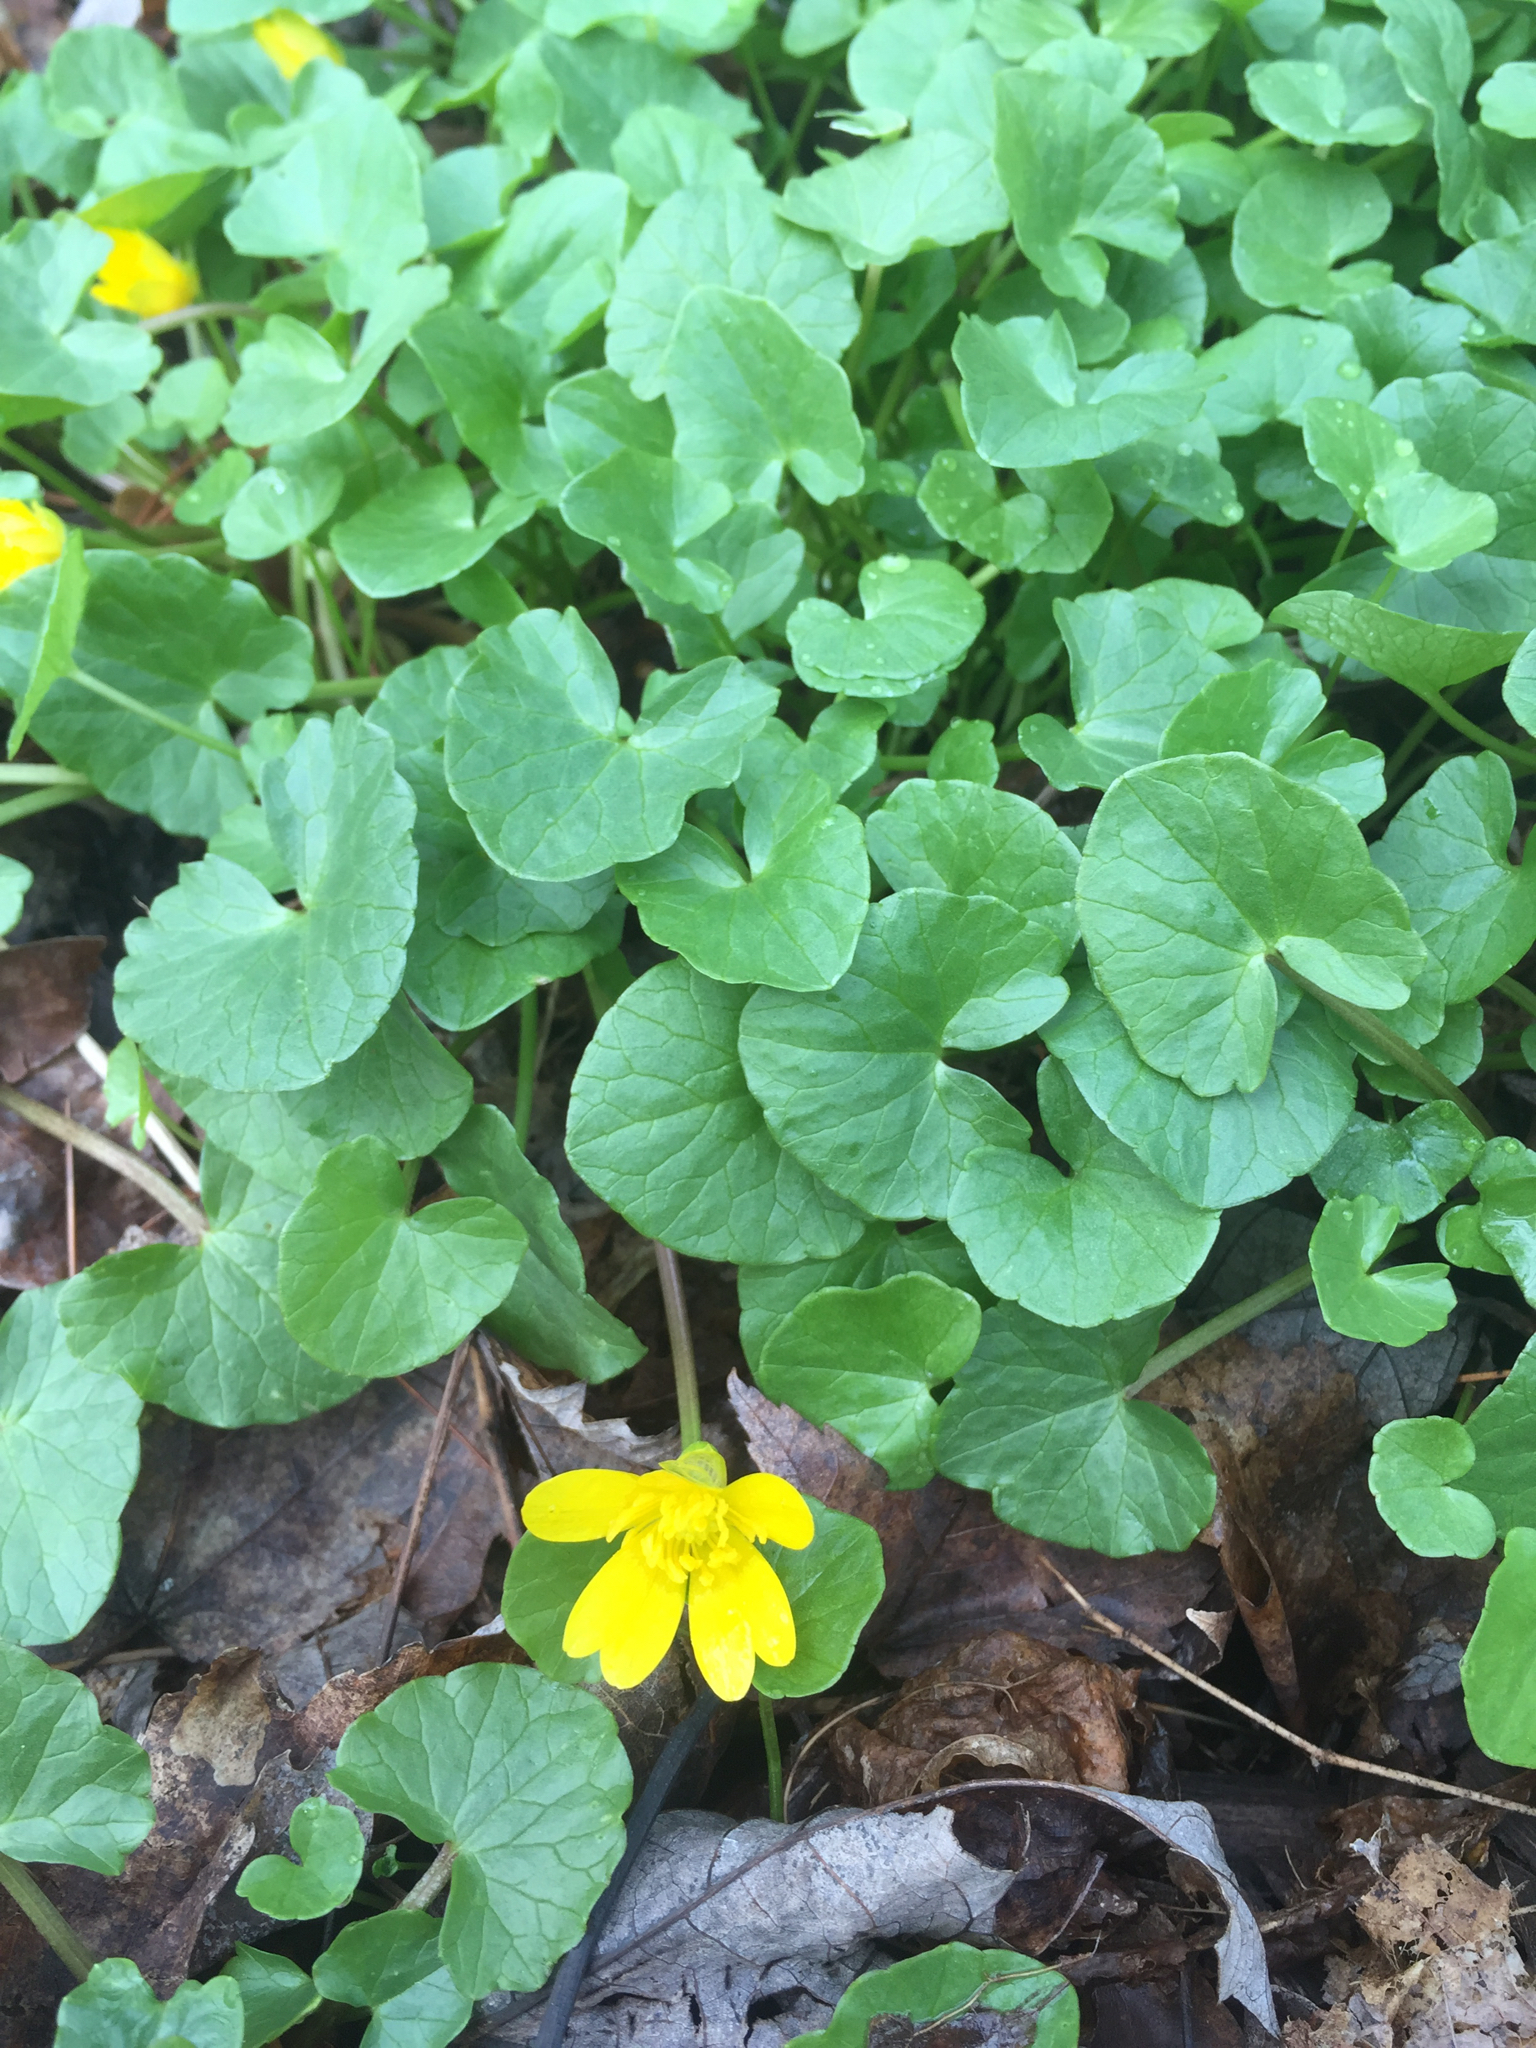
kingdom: Plantae
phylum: Tracheophyta
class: Magnoliopsida
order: Ranunculales
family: Ranunculaceae
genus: Ficaria
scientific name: Ficaria verna
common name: Lesser celandine
